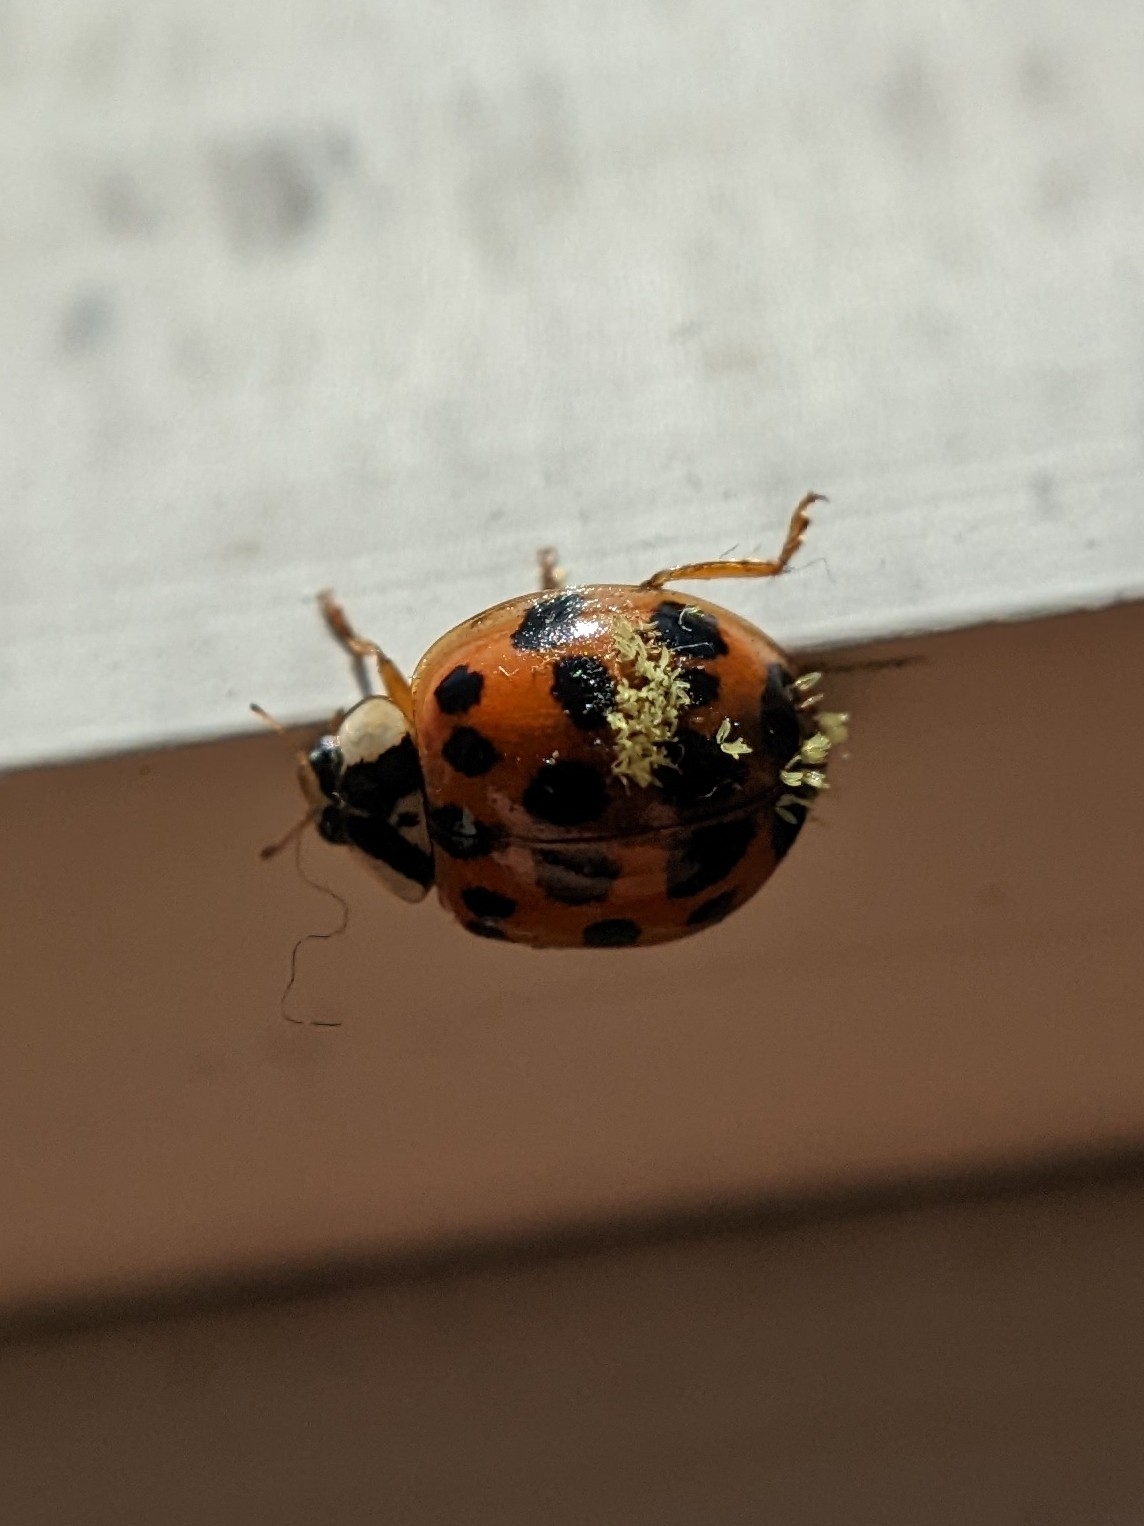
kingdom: Fungi
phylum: Ascomycota
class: Laboulbeniomycetes
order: Laboulbeniales
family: Laboulbeniaceae
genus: Hesperomyces
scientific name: Hesperomyces harmoniae
